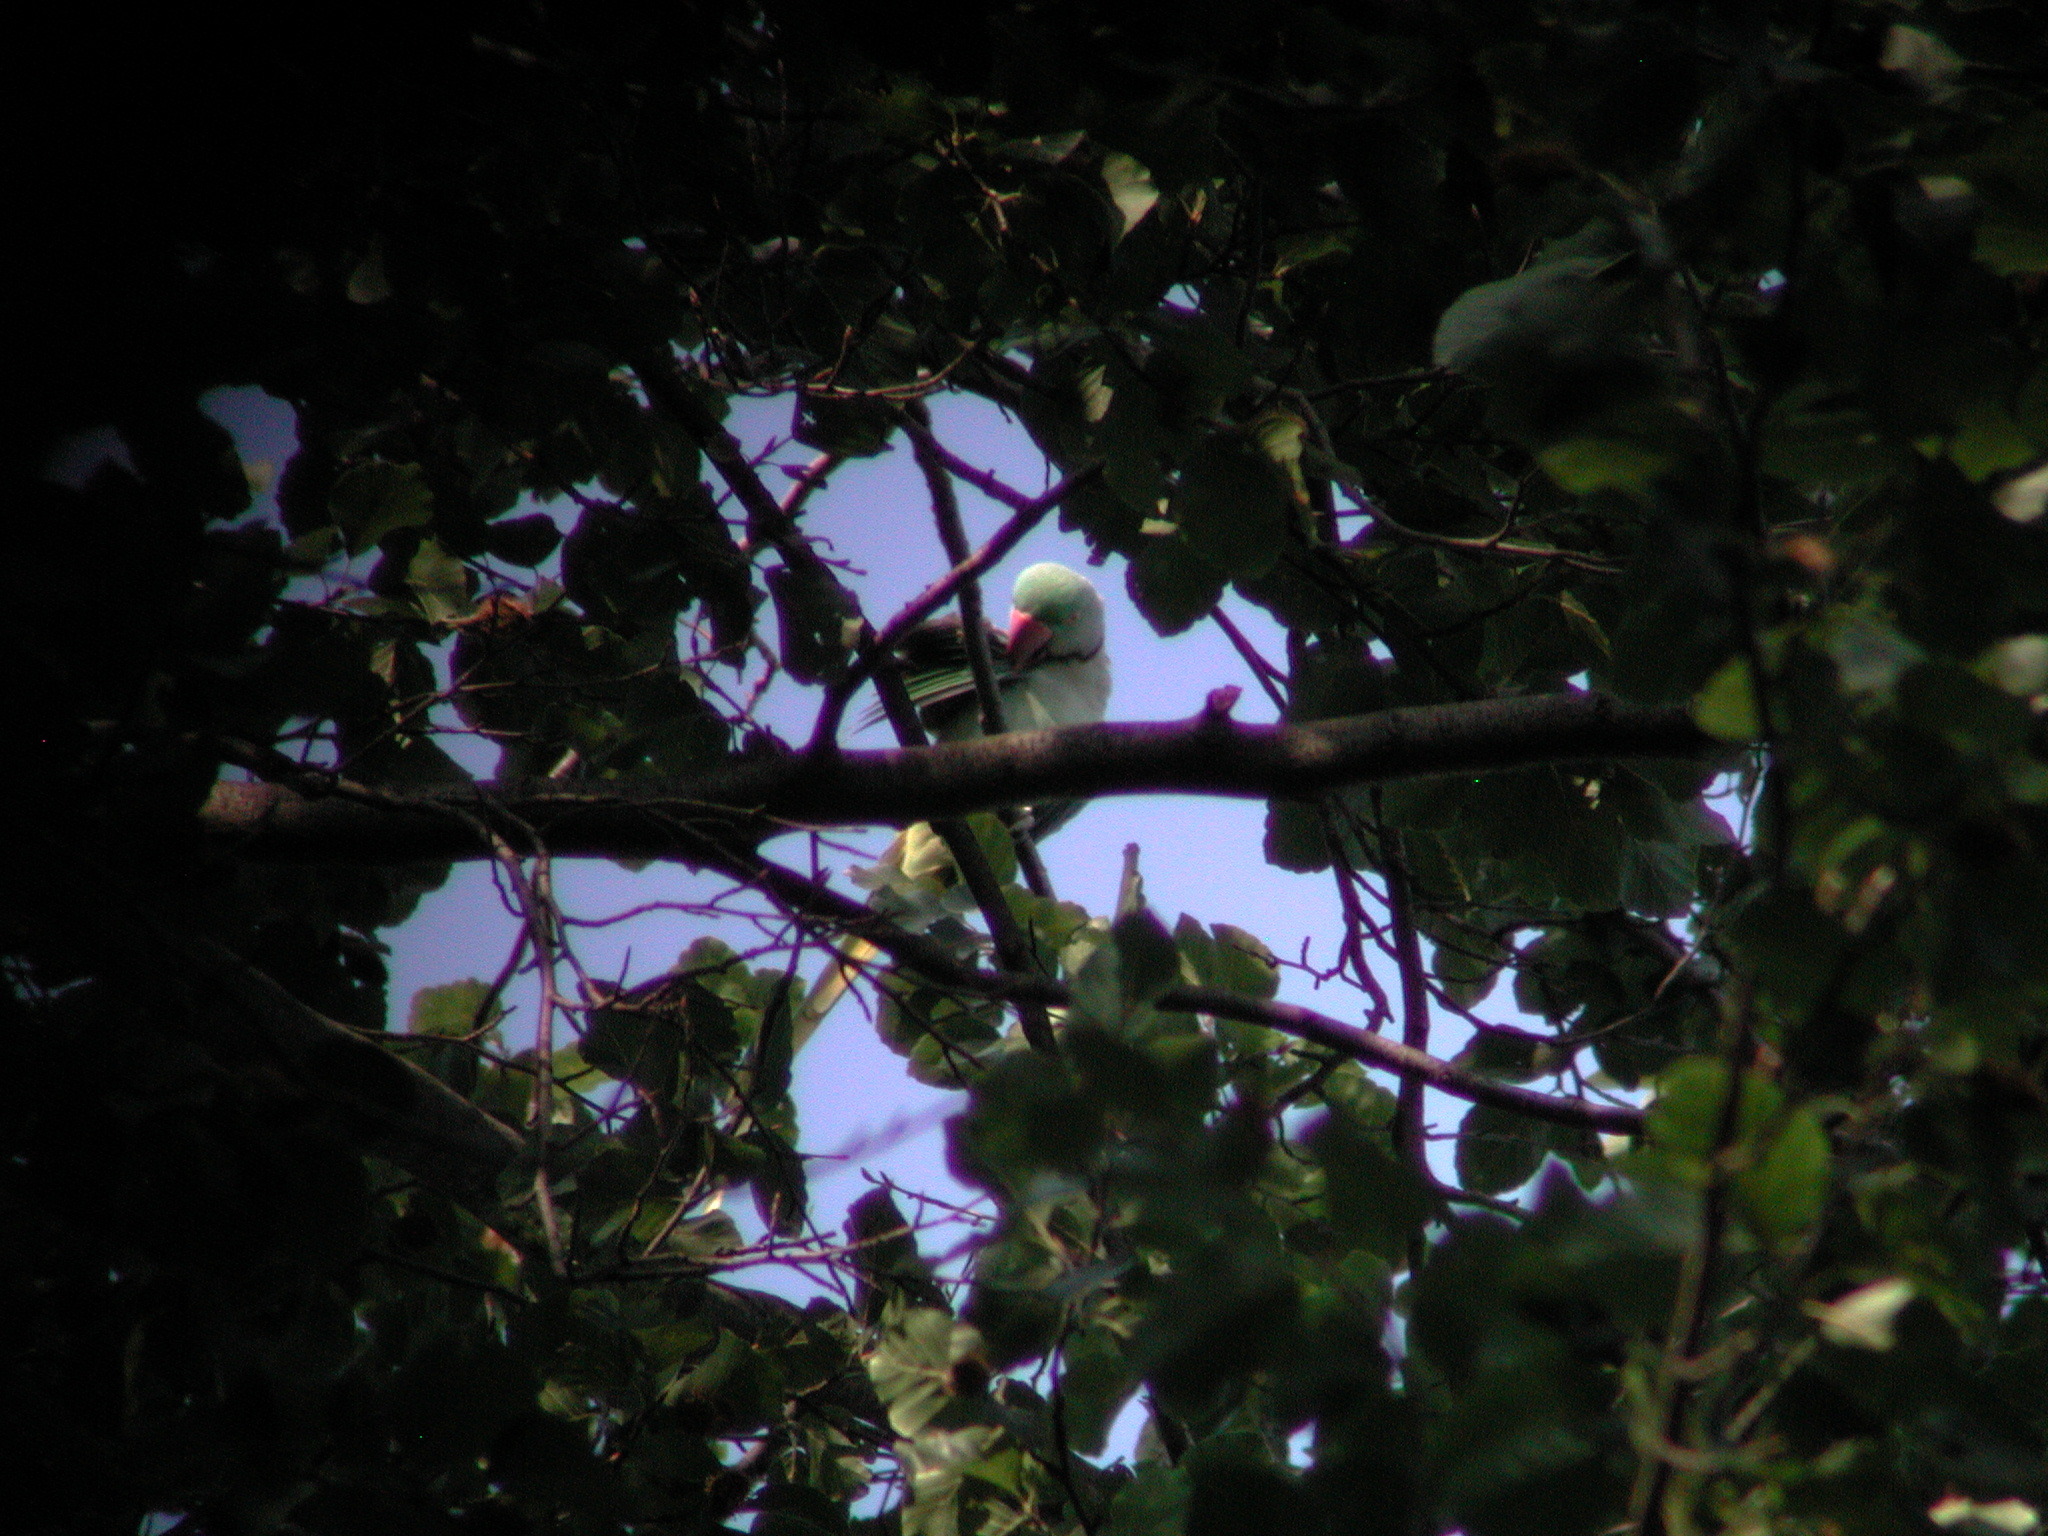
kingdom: Animalia
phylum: Chordata
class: Aves
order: Psittaciformes
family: Psittacidae
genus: Psittacula
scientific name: Psittacula eupatria
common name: Alexandrine parakeet
